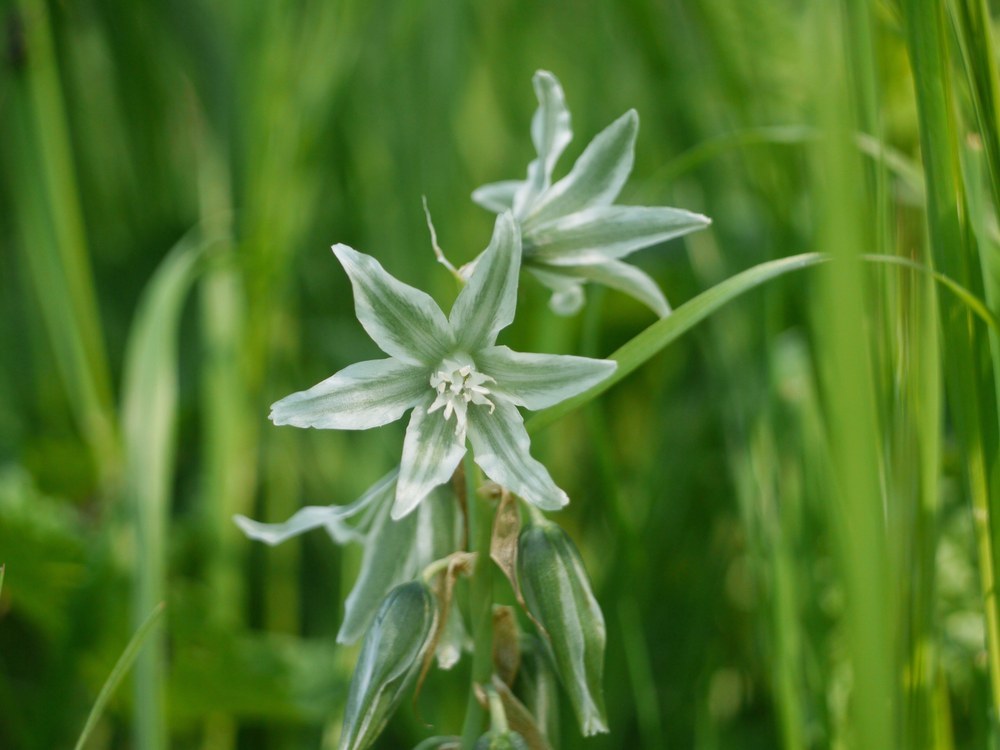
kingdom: Plantae
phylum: Tracheophyta
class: Liliopsida
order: Asparagales
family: Asparagaceae
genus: Ornithogalum
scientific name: Ornithogalum boucheanum
